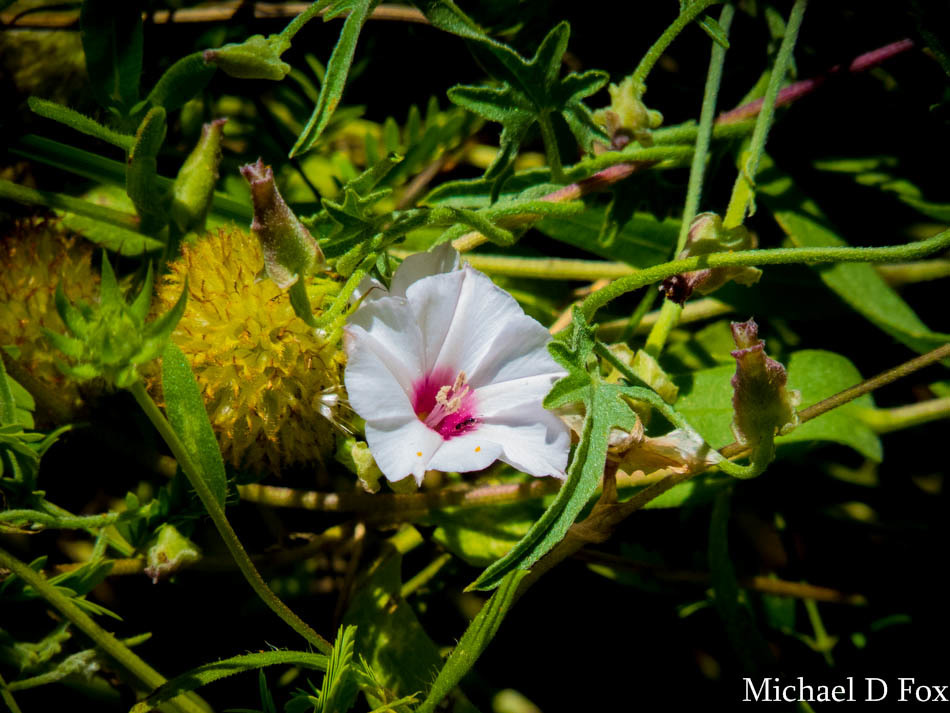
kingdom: Plantae
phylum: Tracheophyta
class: Magnoliopsida
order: Solanales
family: Convolvulaceae
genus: Convolvulus
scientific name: Convolvulus equitans
